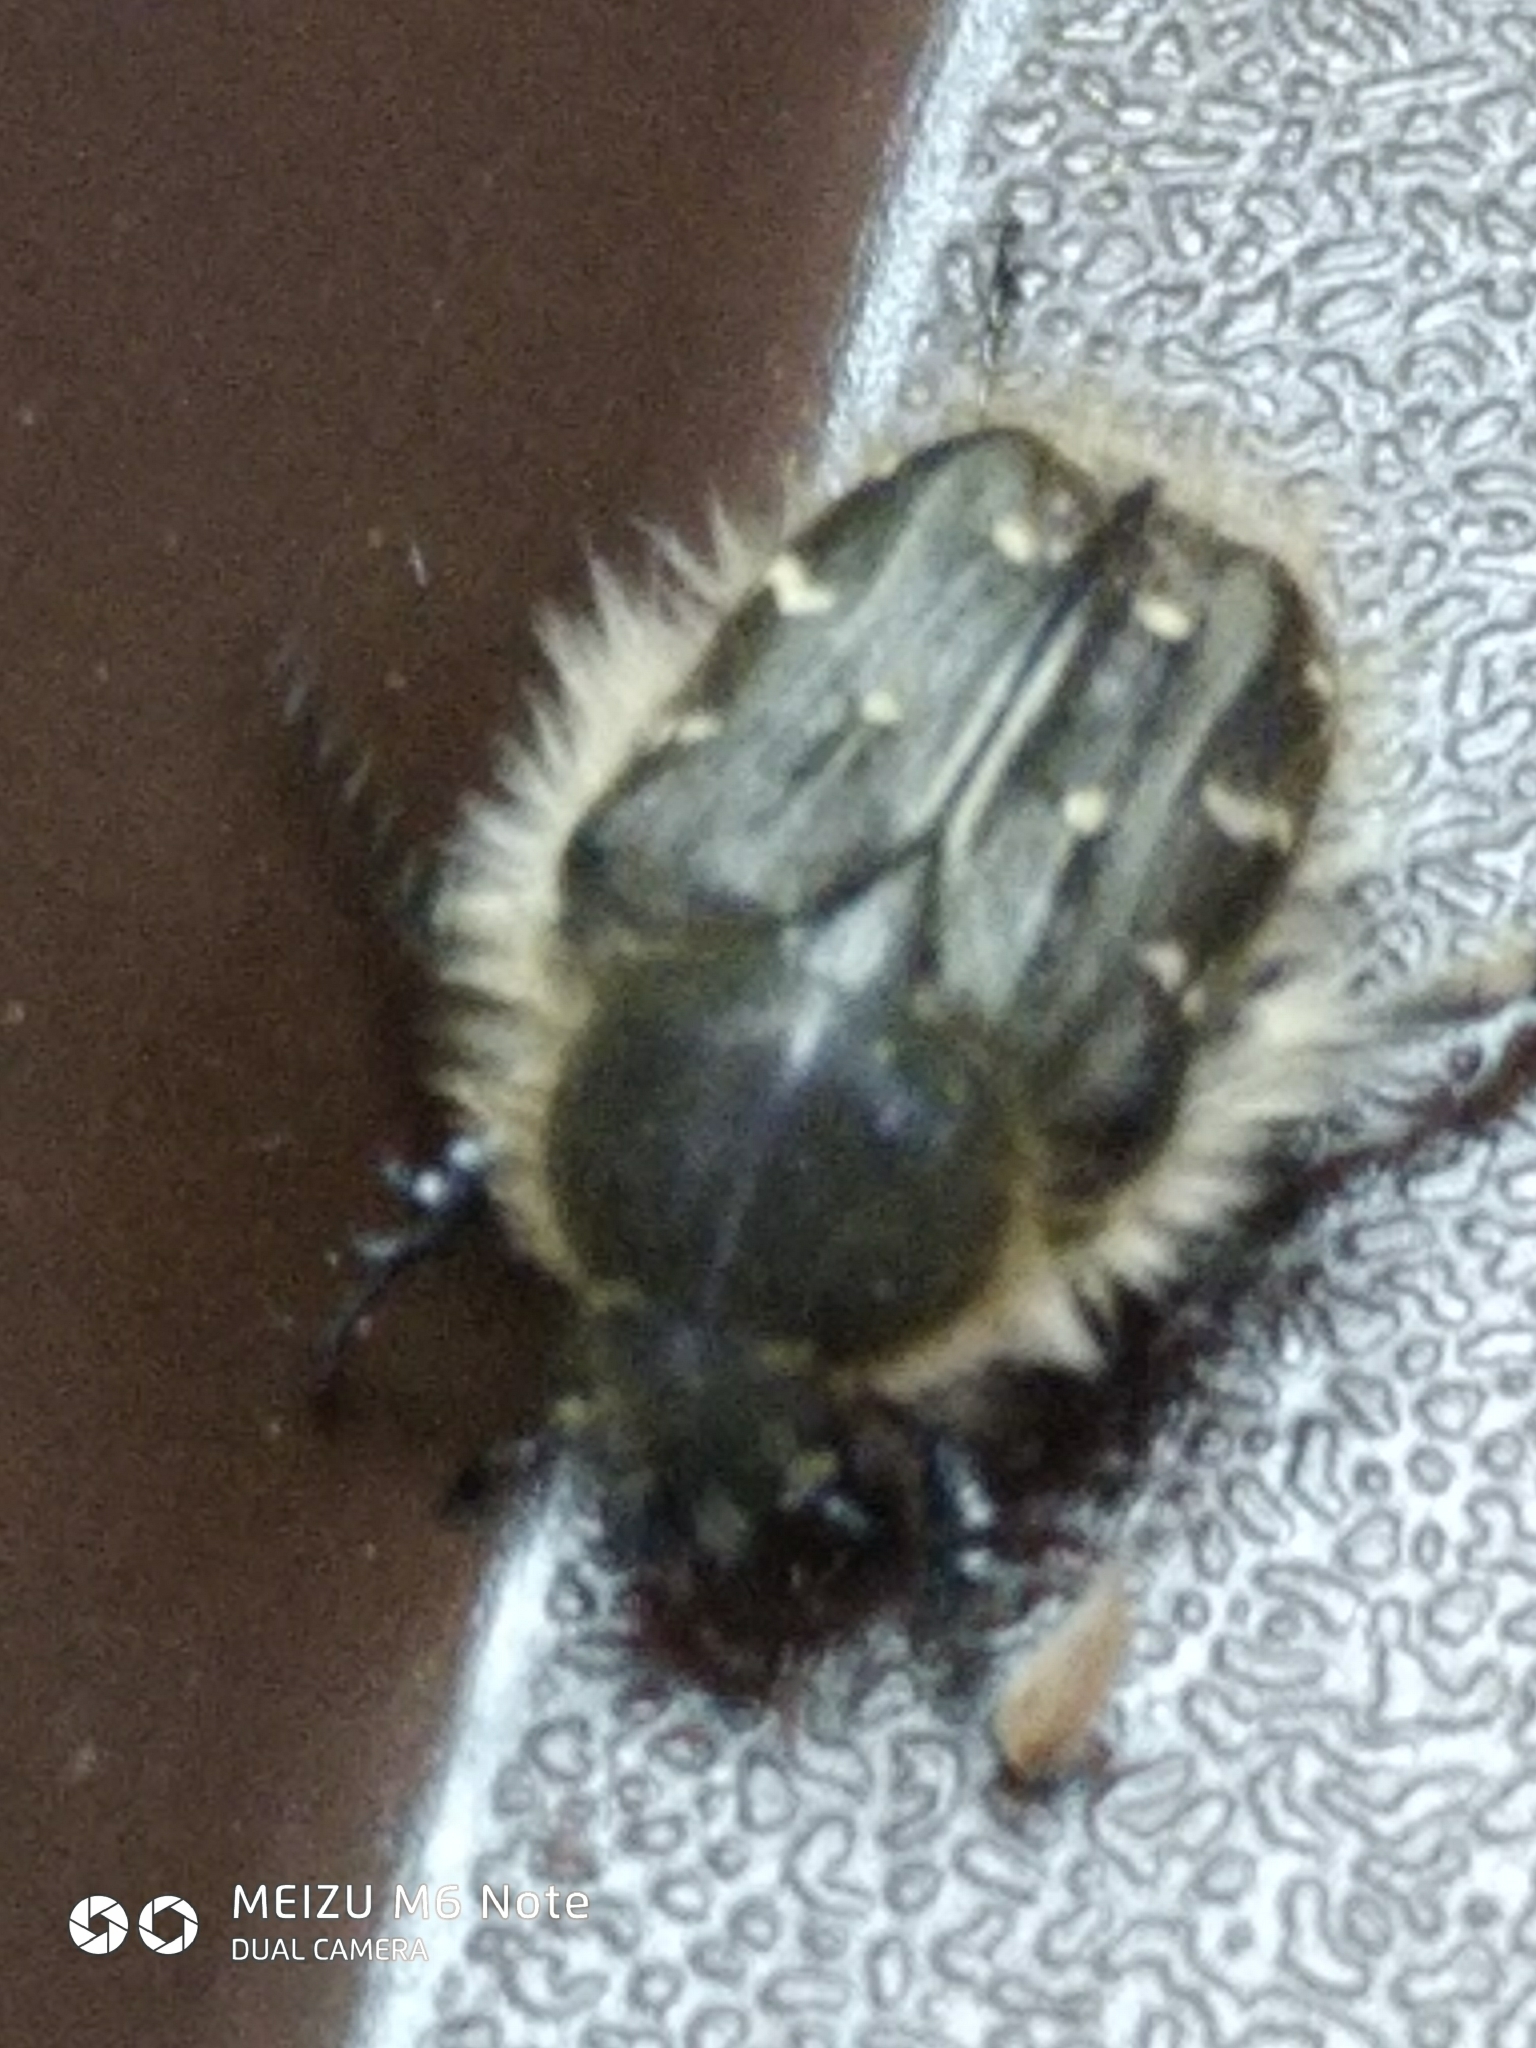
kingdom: Animalia
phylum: Arthropoda
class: Insecta
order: Coleoptera
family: Scarabaeidae
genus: Tropinota
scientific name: Tropinota hirta
